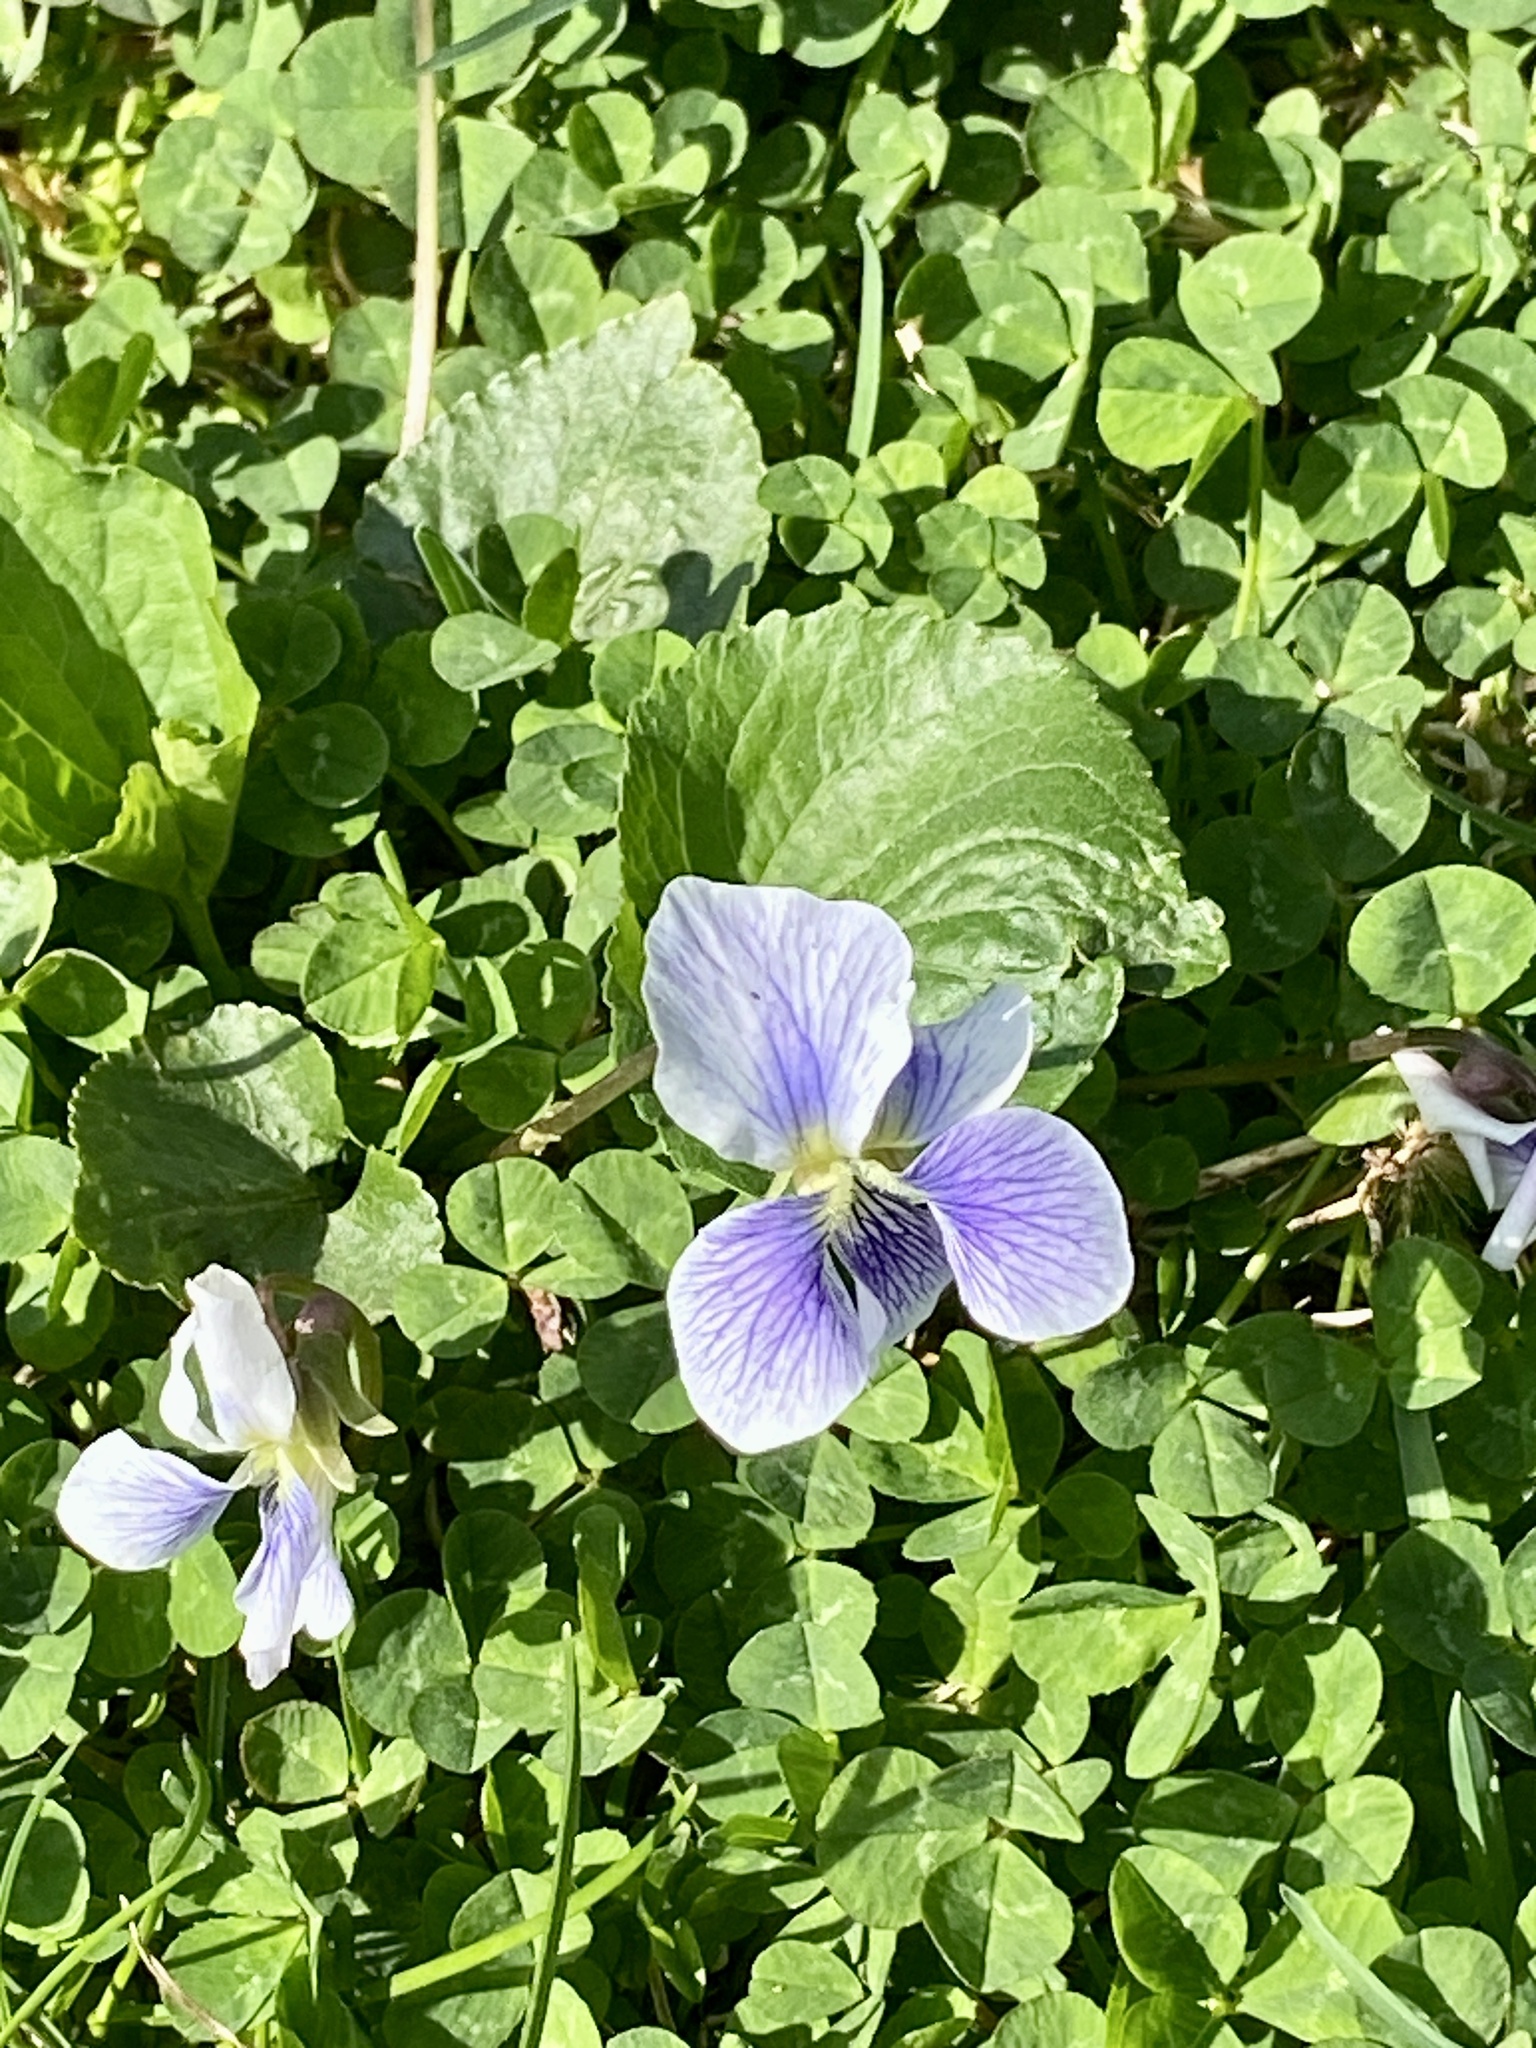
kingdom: Plantae
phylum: Tracheophyta
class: Magnoliopsida
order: Malpighiales
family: Violaceae
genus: Viola
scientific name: Viola sororia
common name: Dooryard violet
